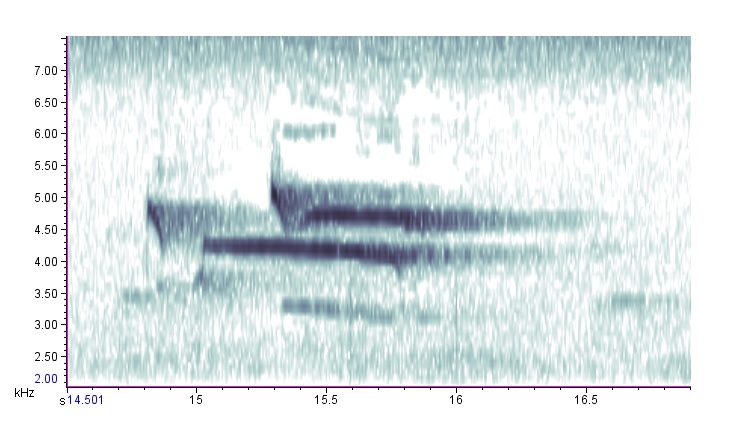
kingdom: Animalia
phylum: Chordata
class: Aves
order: Accipitriformes
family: Accipitridae
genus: Buteo
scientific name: Buteo platypterus
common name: Broad-winged hawk
